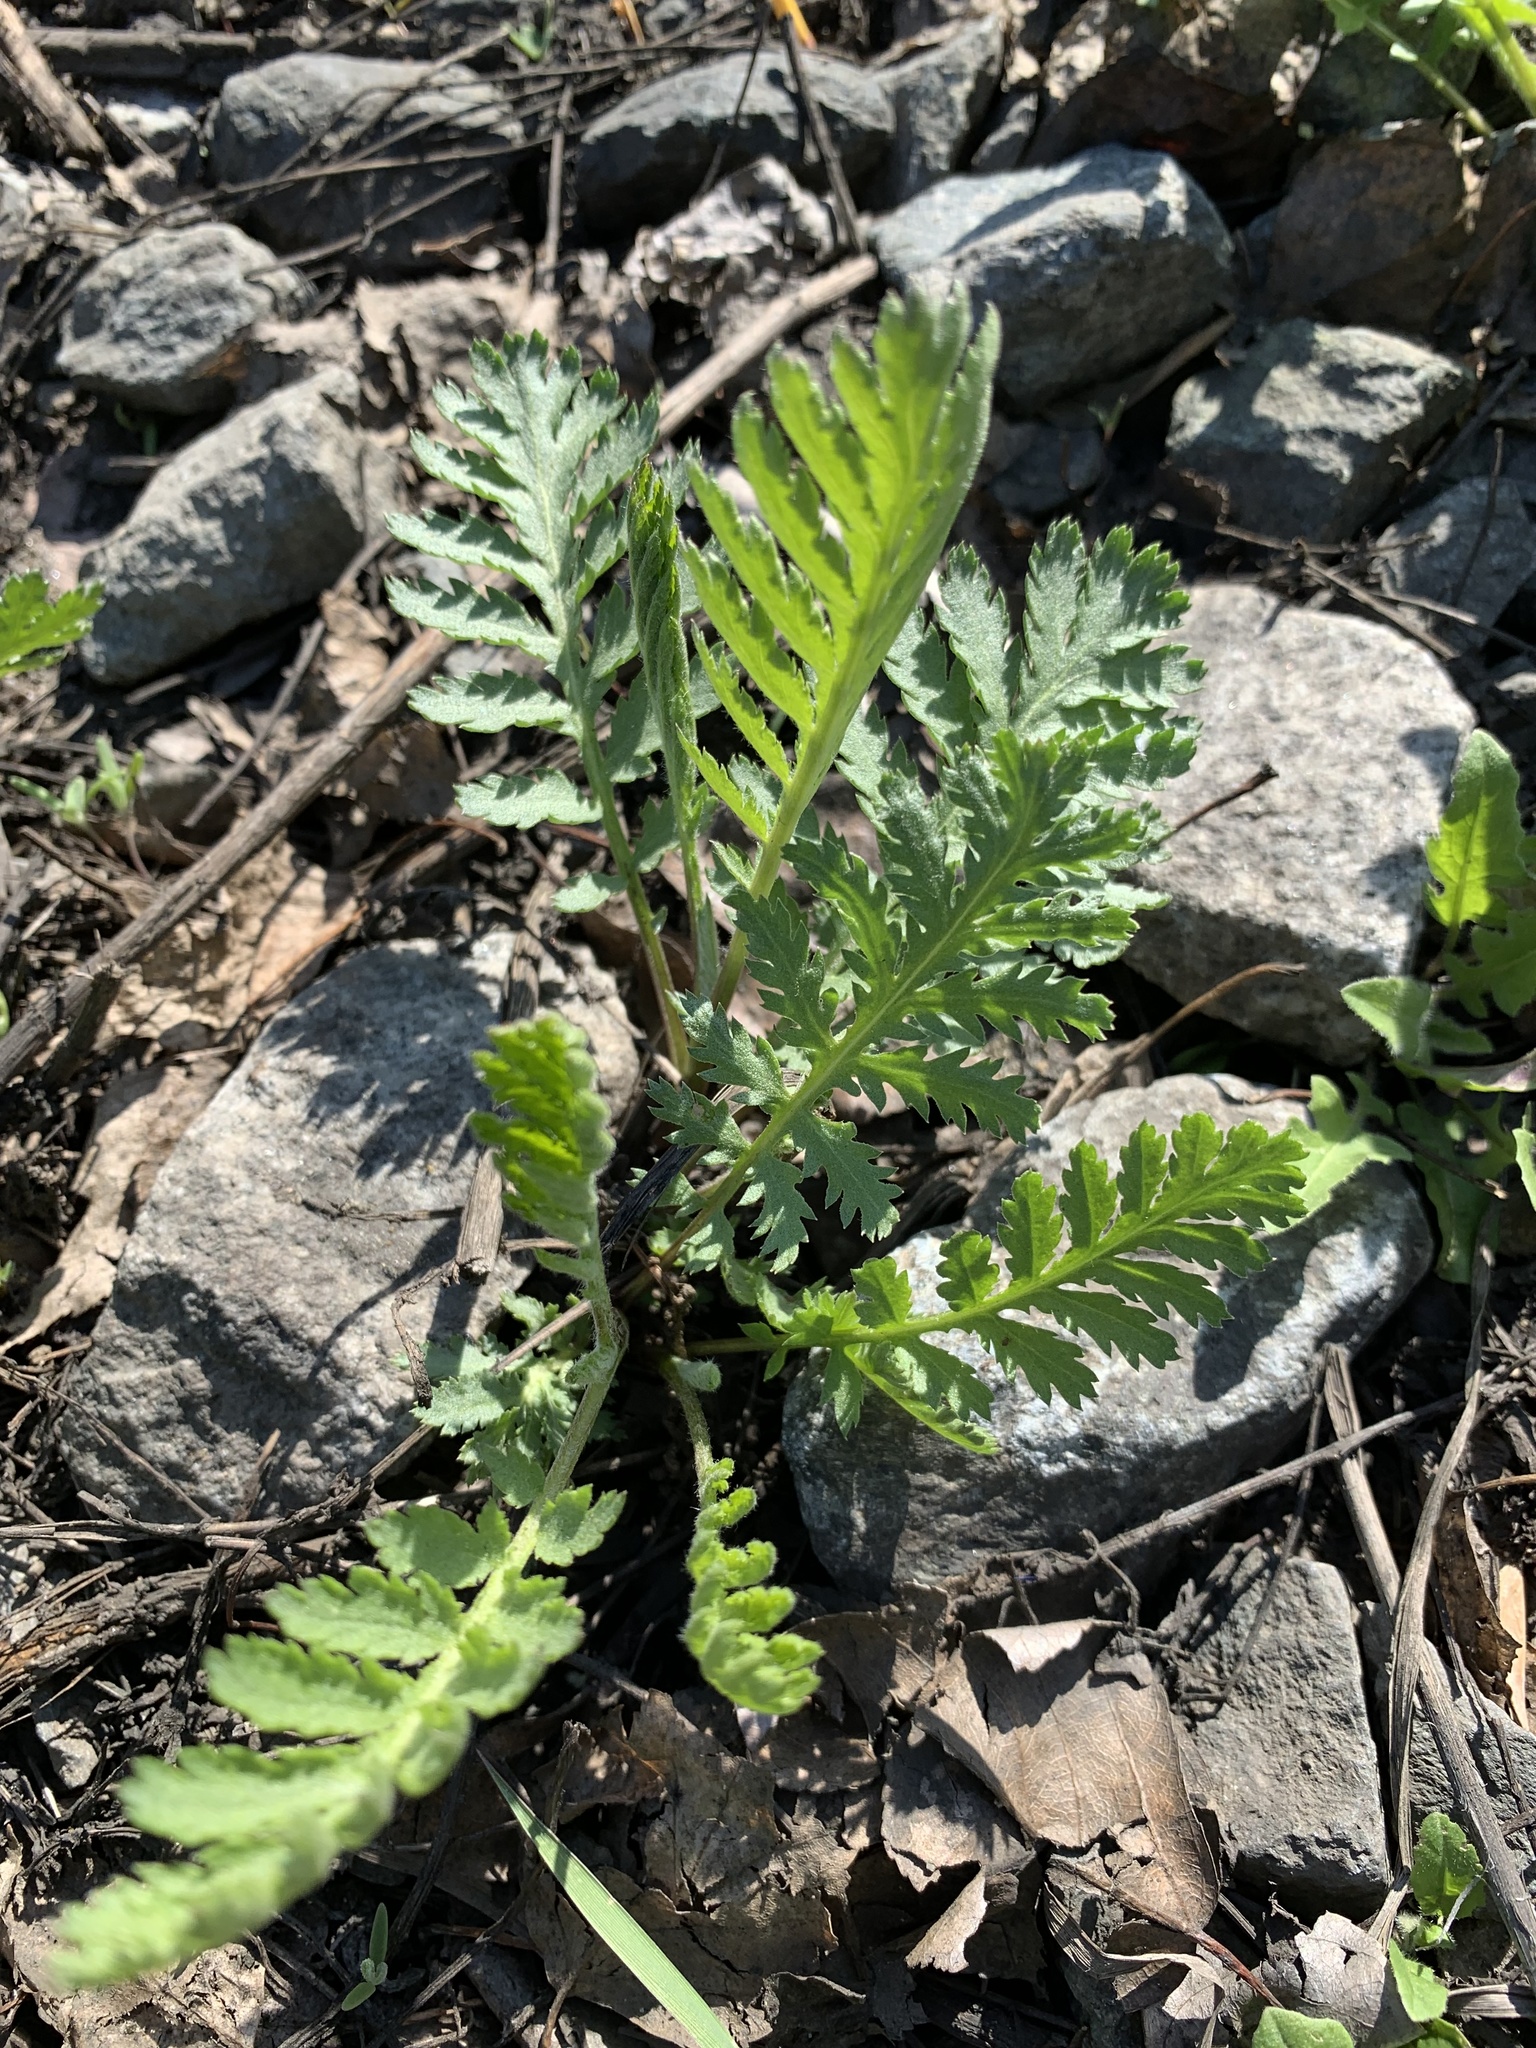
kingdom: Plantae
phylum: Tracheophyta
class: Magnoliopsida
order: Asterales
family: Asteraceae
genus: Tanacetum
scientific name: Tanacetum vulgare
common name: Common tansy
